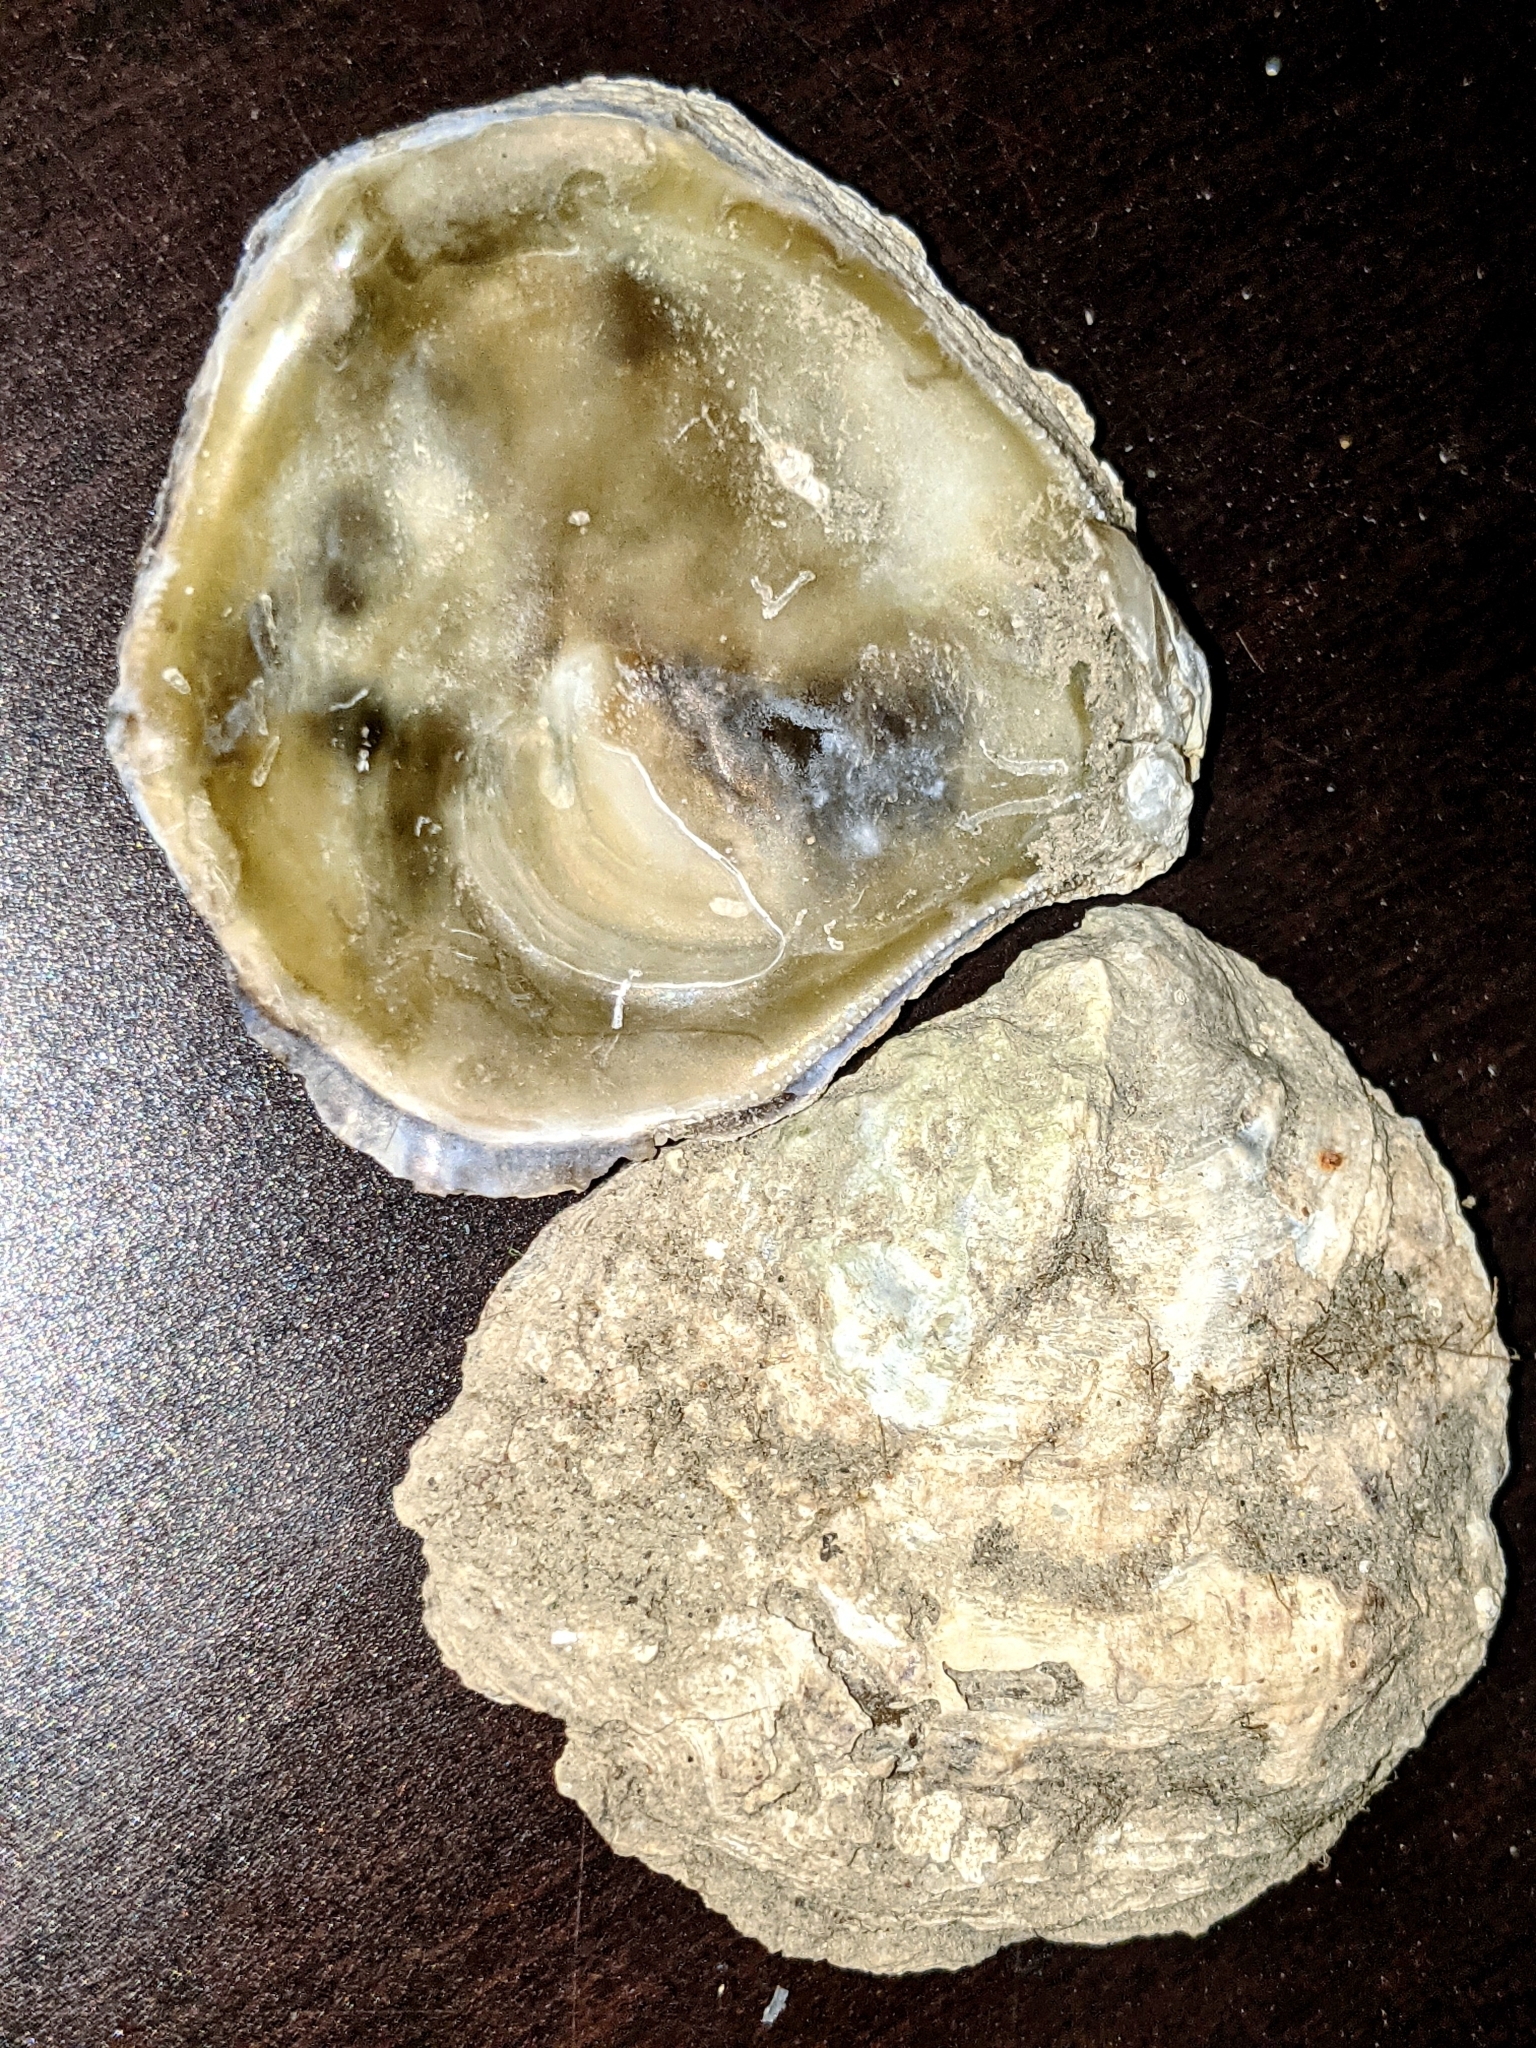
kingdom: Animalia
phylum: Mollusca
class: Bivalvia
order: Ostreida
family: Ostreidae
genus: Ostrea
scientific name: Ostrea lurida
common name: Olympia flat oyster
